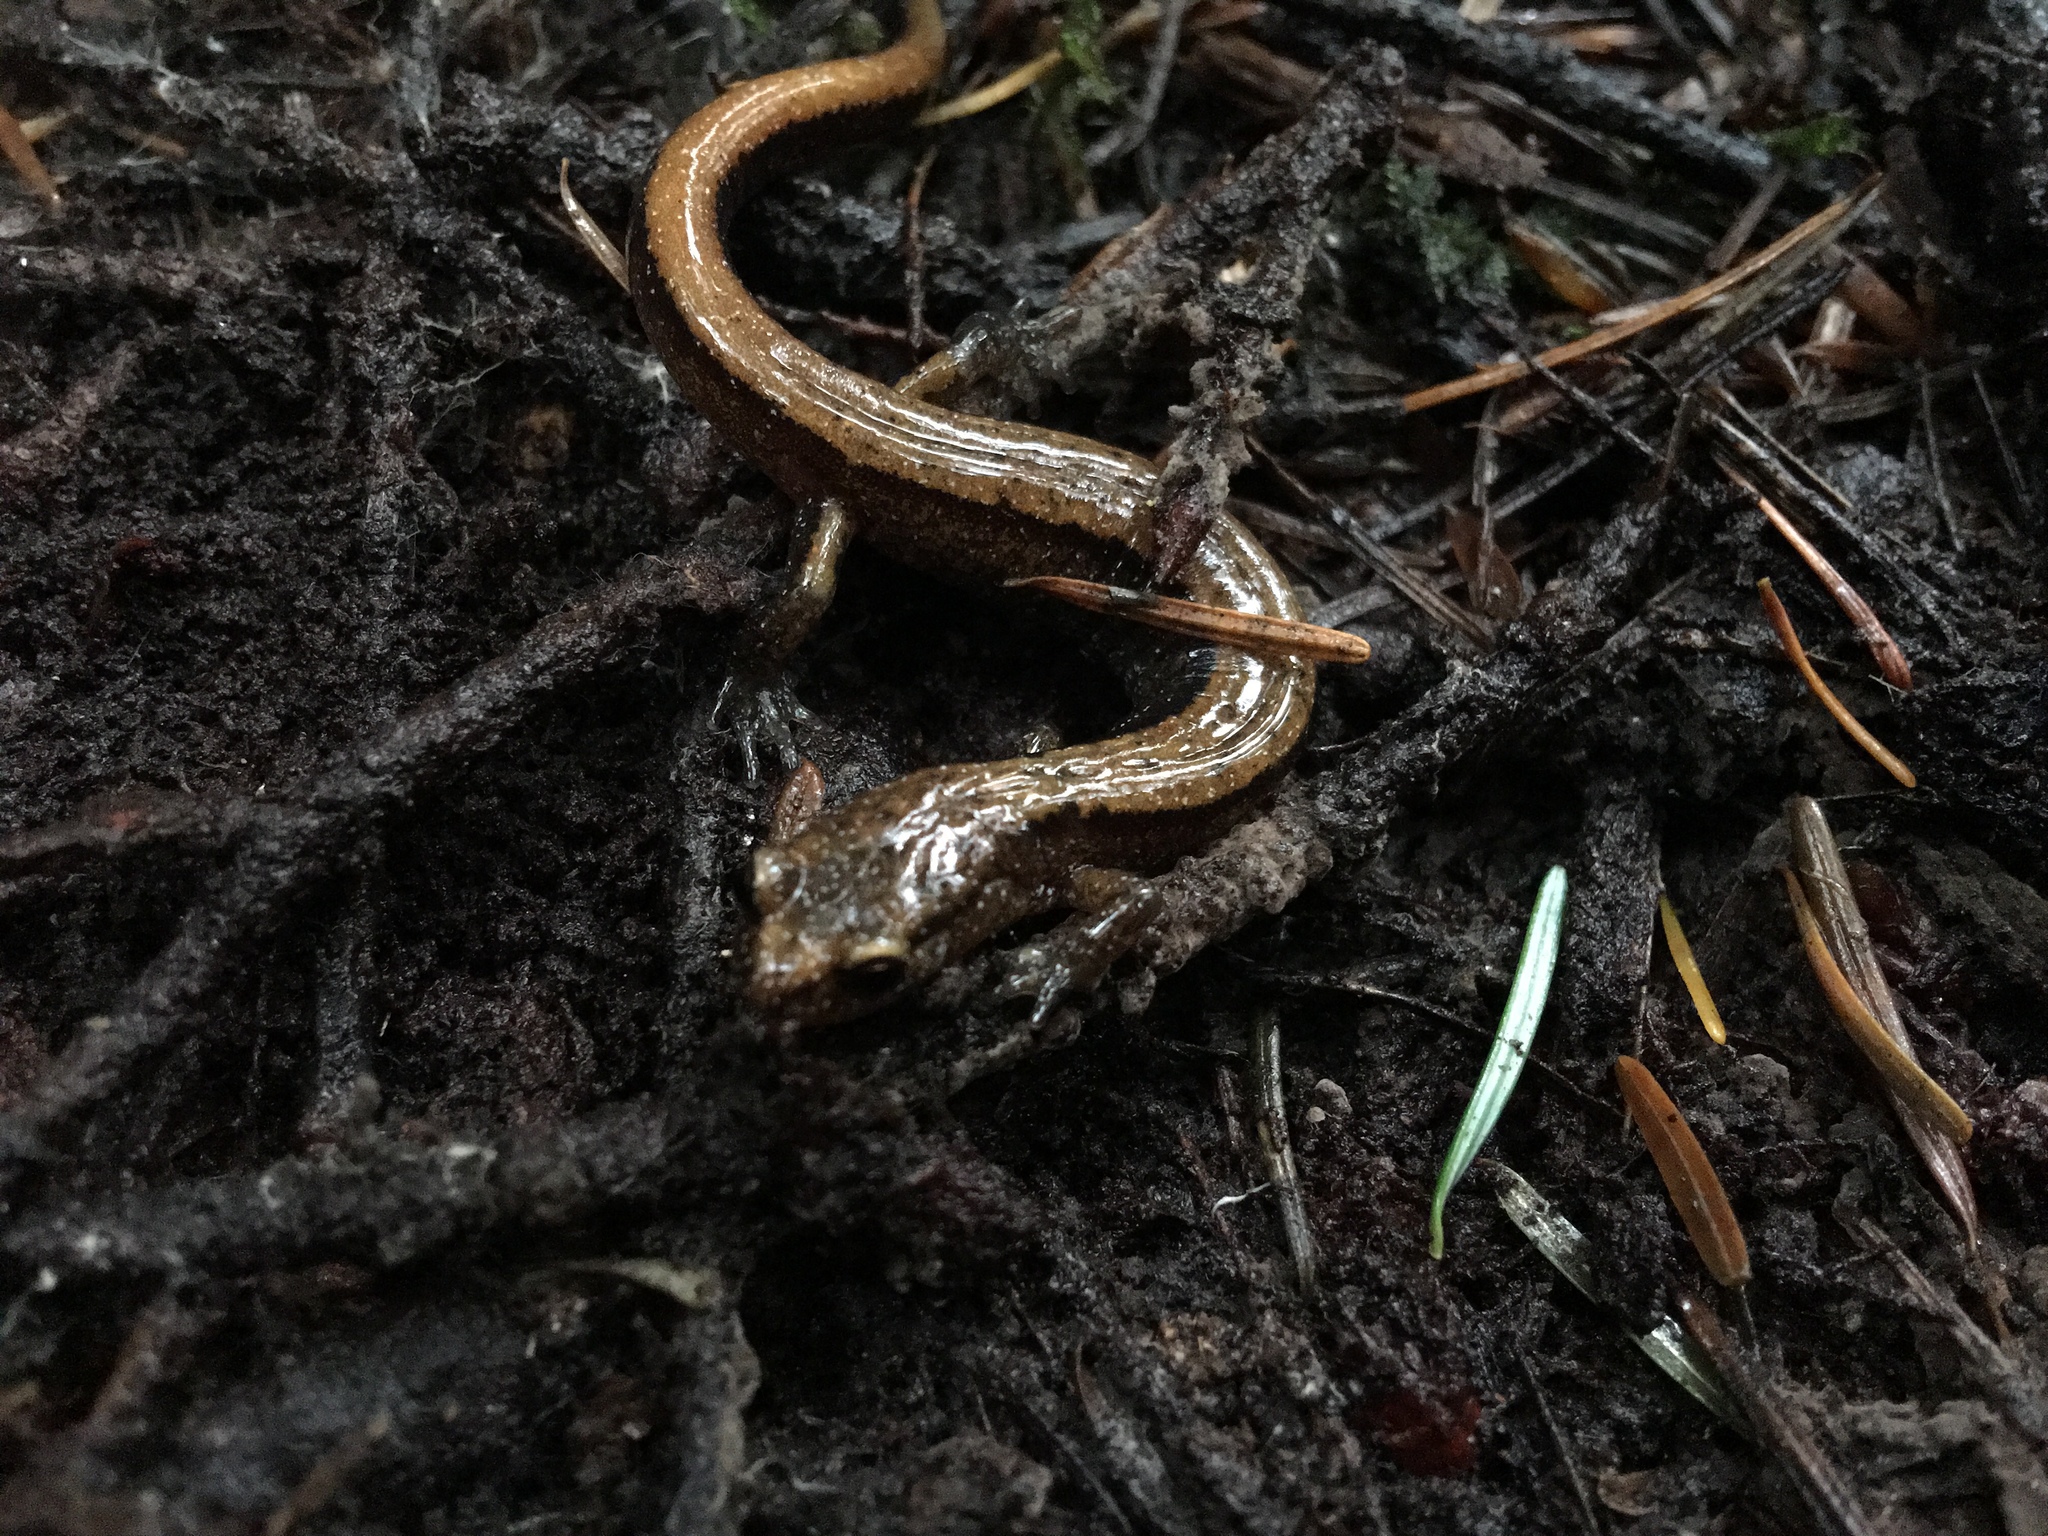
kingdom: Animalia
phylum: Chordata
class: Amphibia
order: Caudata
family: Plethodontidae
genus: Plethodon
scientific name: Plethodon vehiculum
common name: Western red-backed salamander
